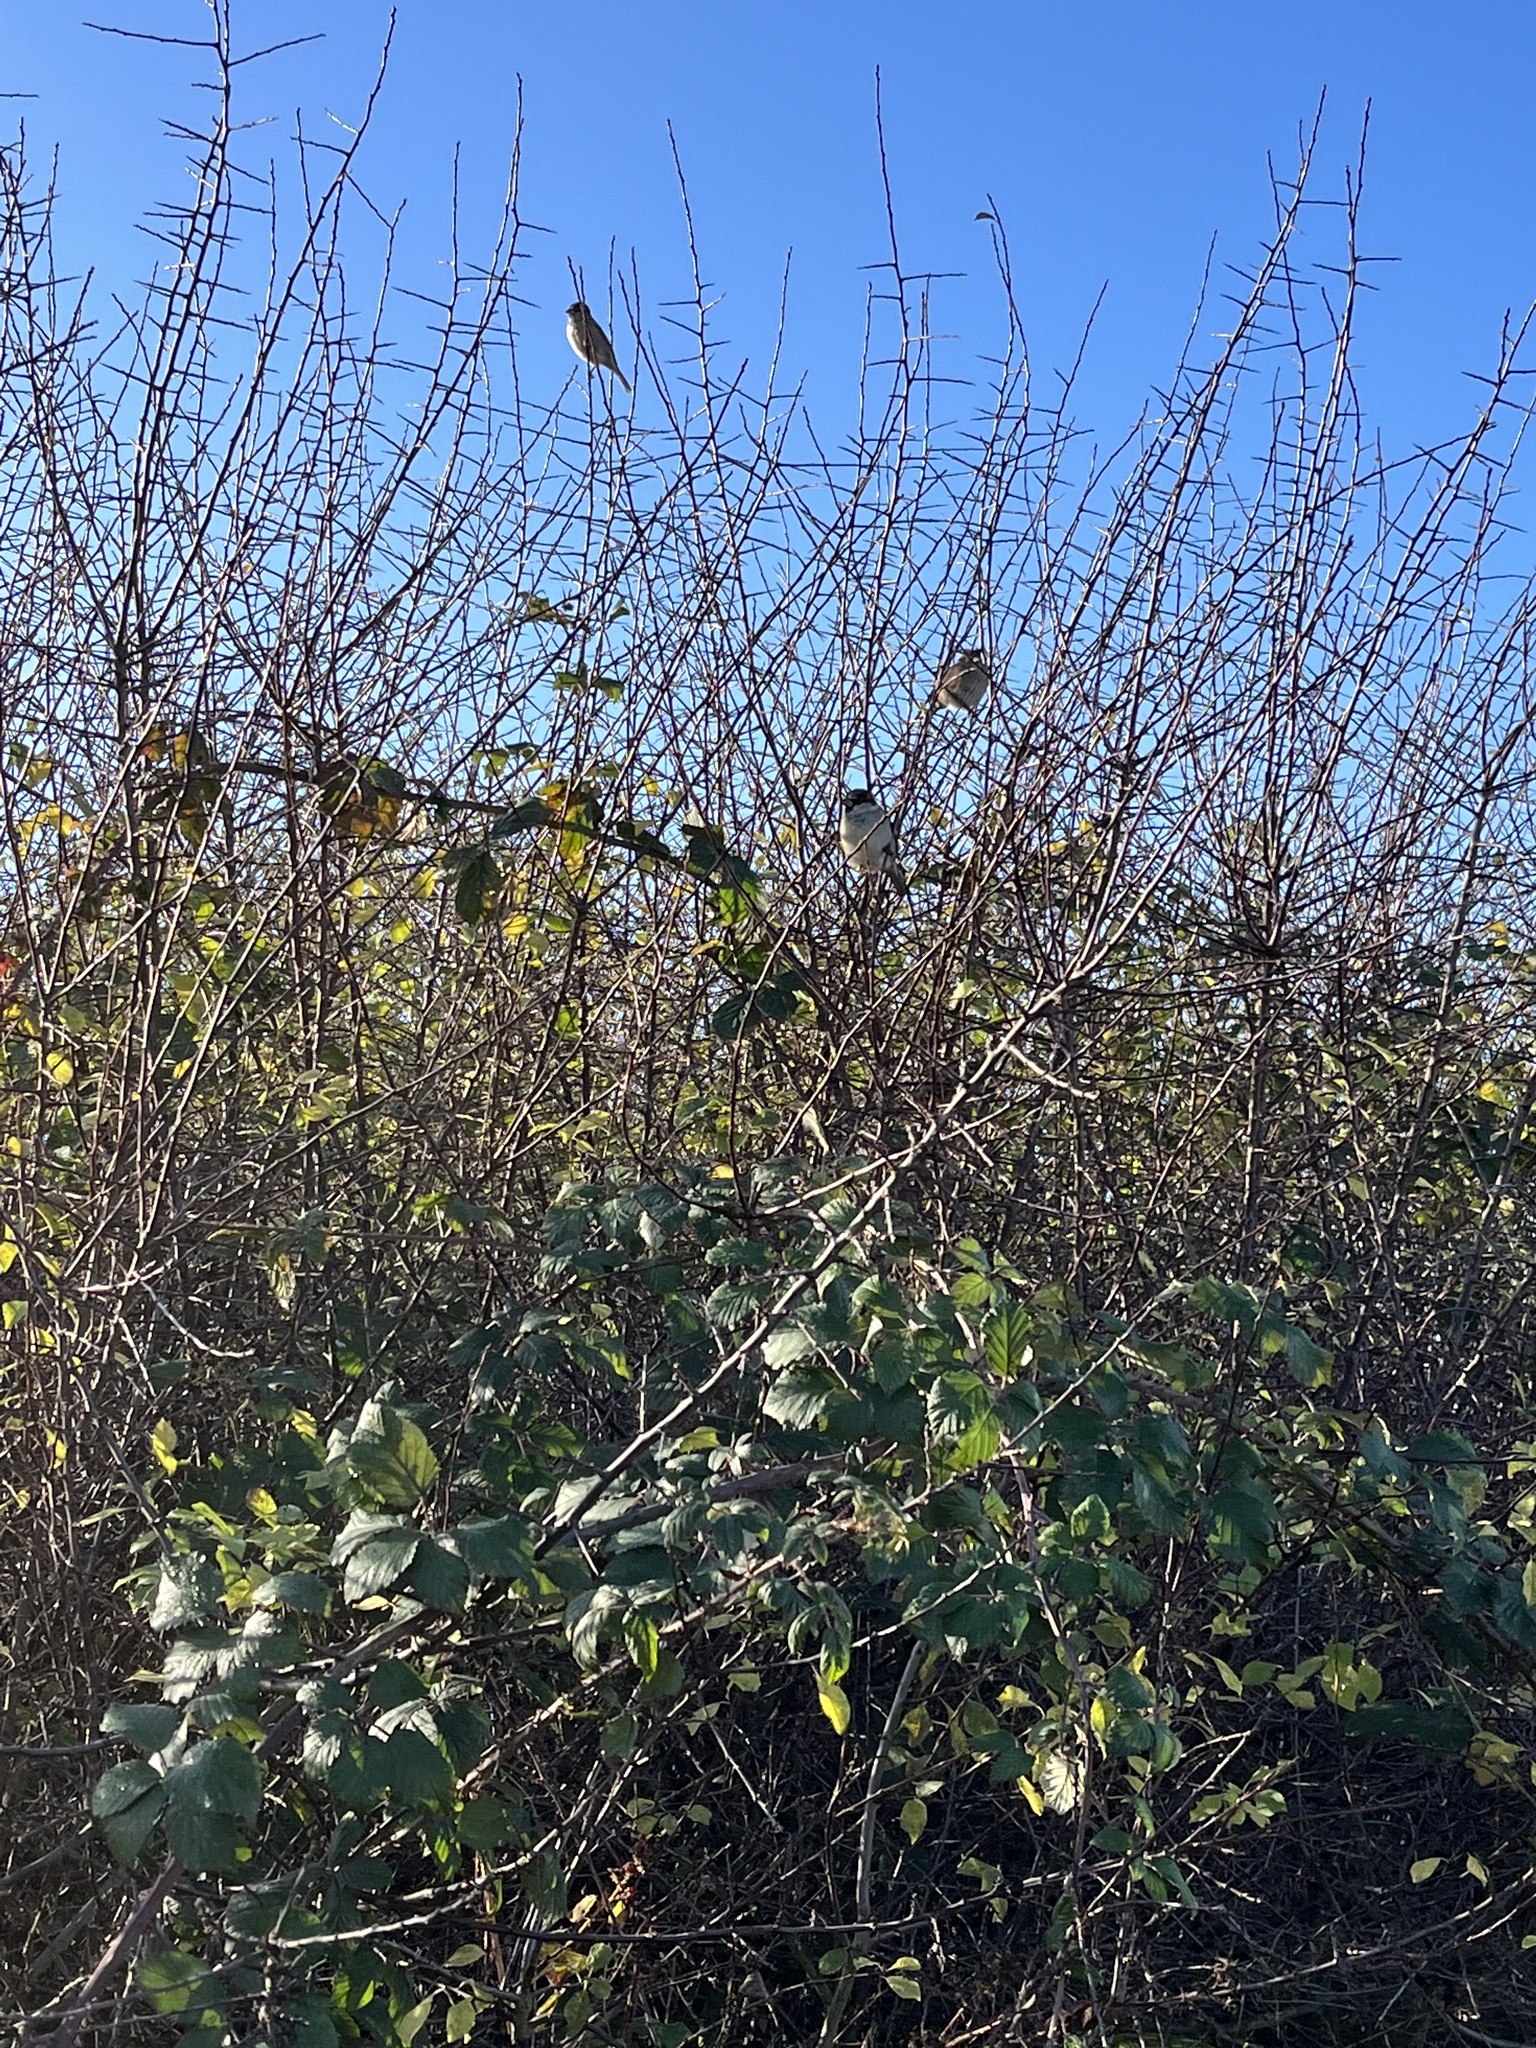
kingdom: Animalia
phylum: Chordata
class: Aves
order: Passeriformes
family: Passeridae
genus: Passer
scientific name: Passer domesticus
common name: House sparrow
